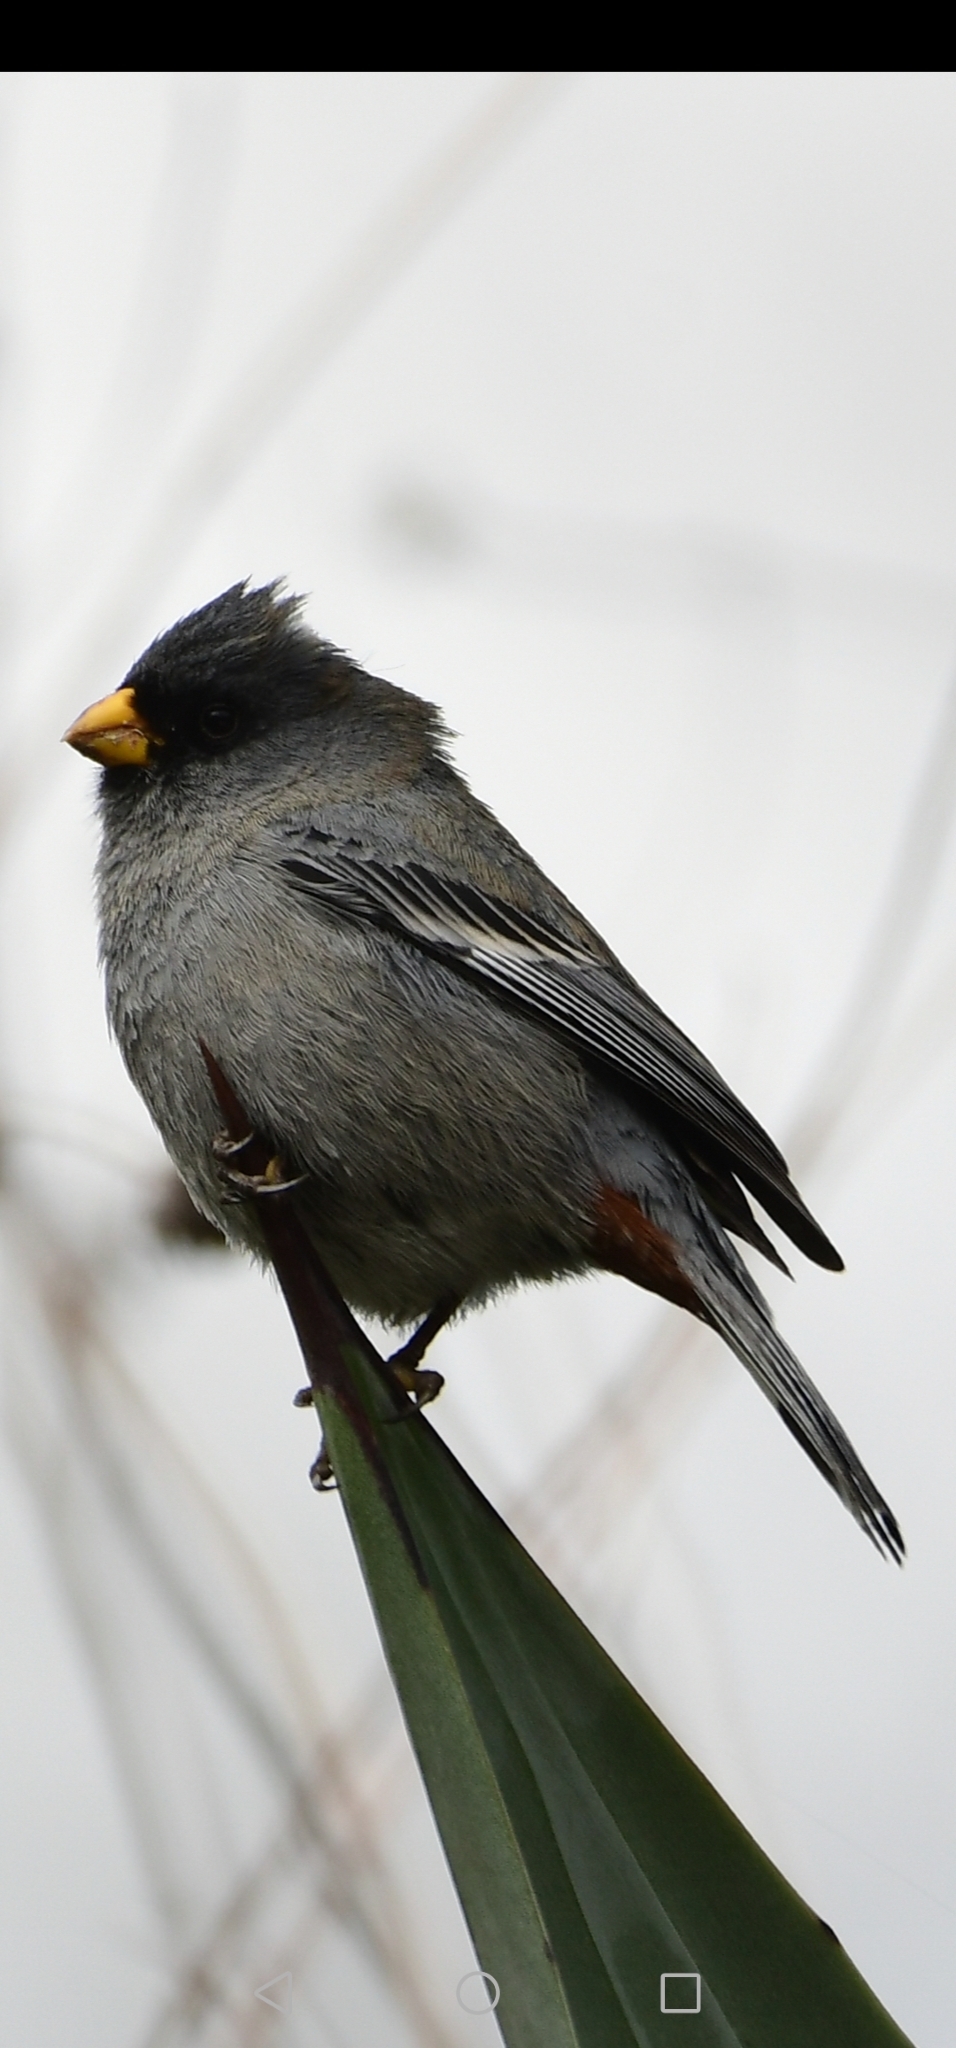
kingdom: Animalia
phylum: Chordata
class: Aves
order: Passeriformes
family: Thraupidae
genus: Catamenia
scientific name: Catamenia analis
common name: Band-tailed seedeater
